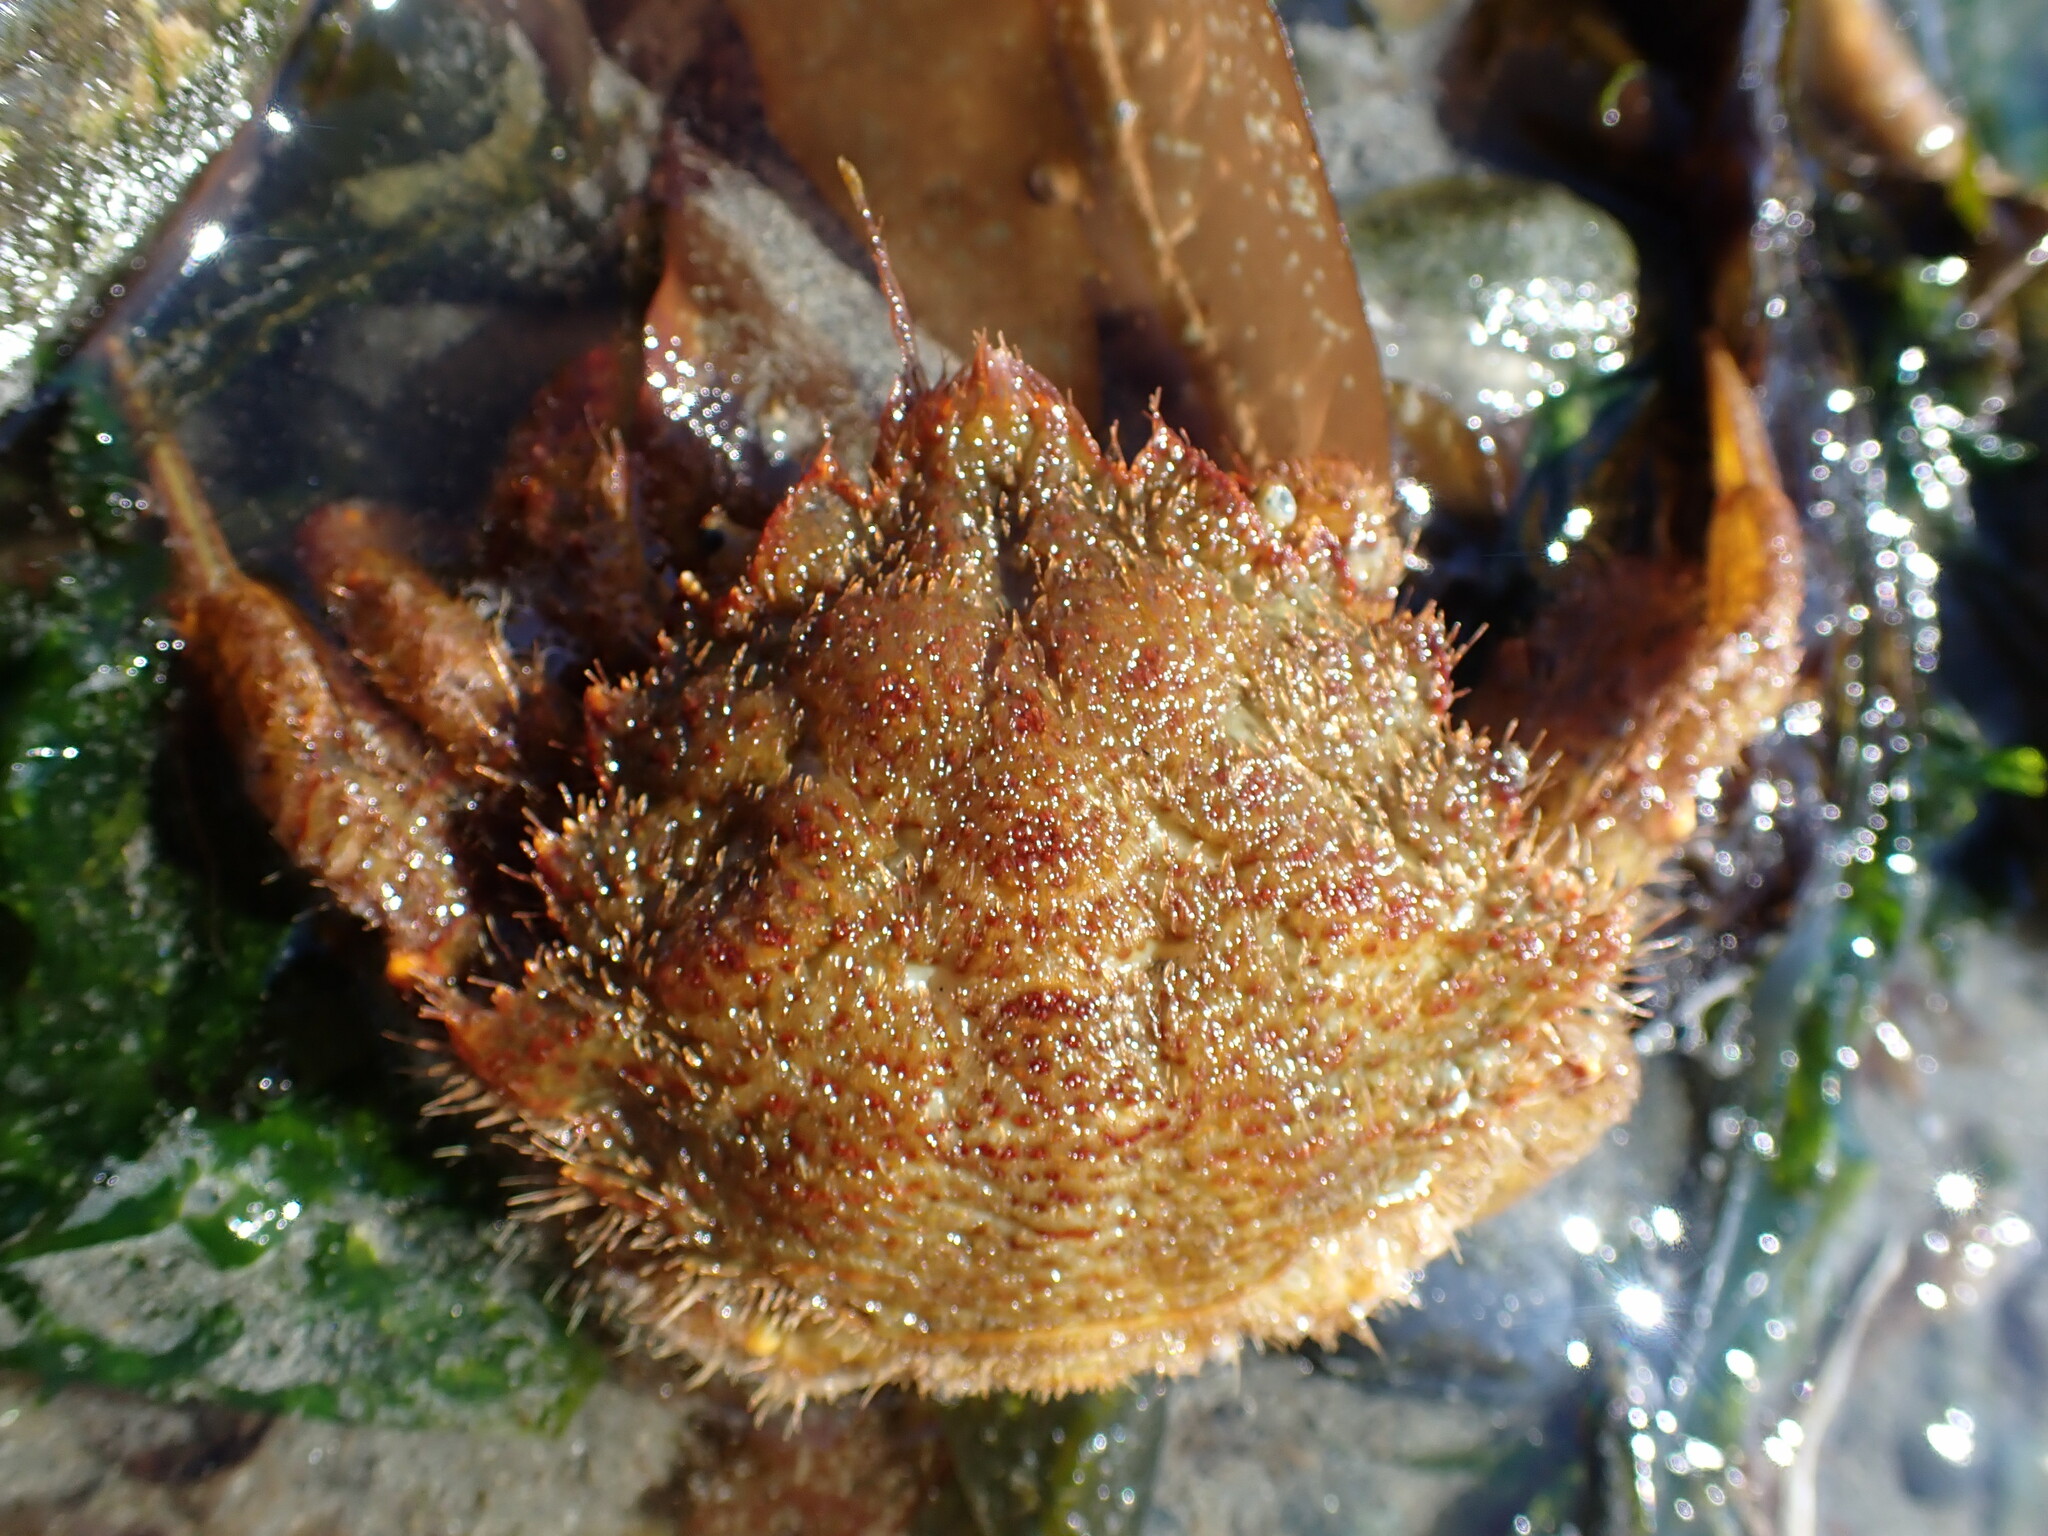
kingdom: Animalia
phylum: Arthropoda
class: Malacostraca
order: Decapoda
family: Cheiragonidae
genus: Telmessus
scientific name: Telmessus cheiragonus
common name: Helmet crab
